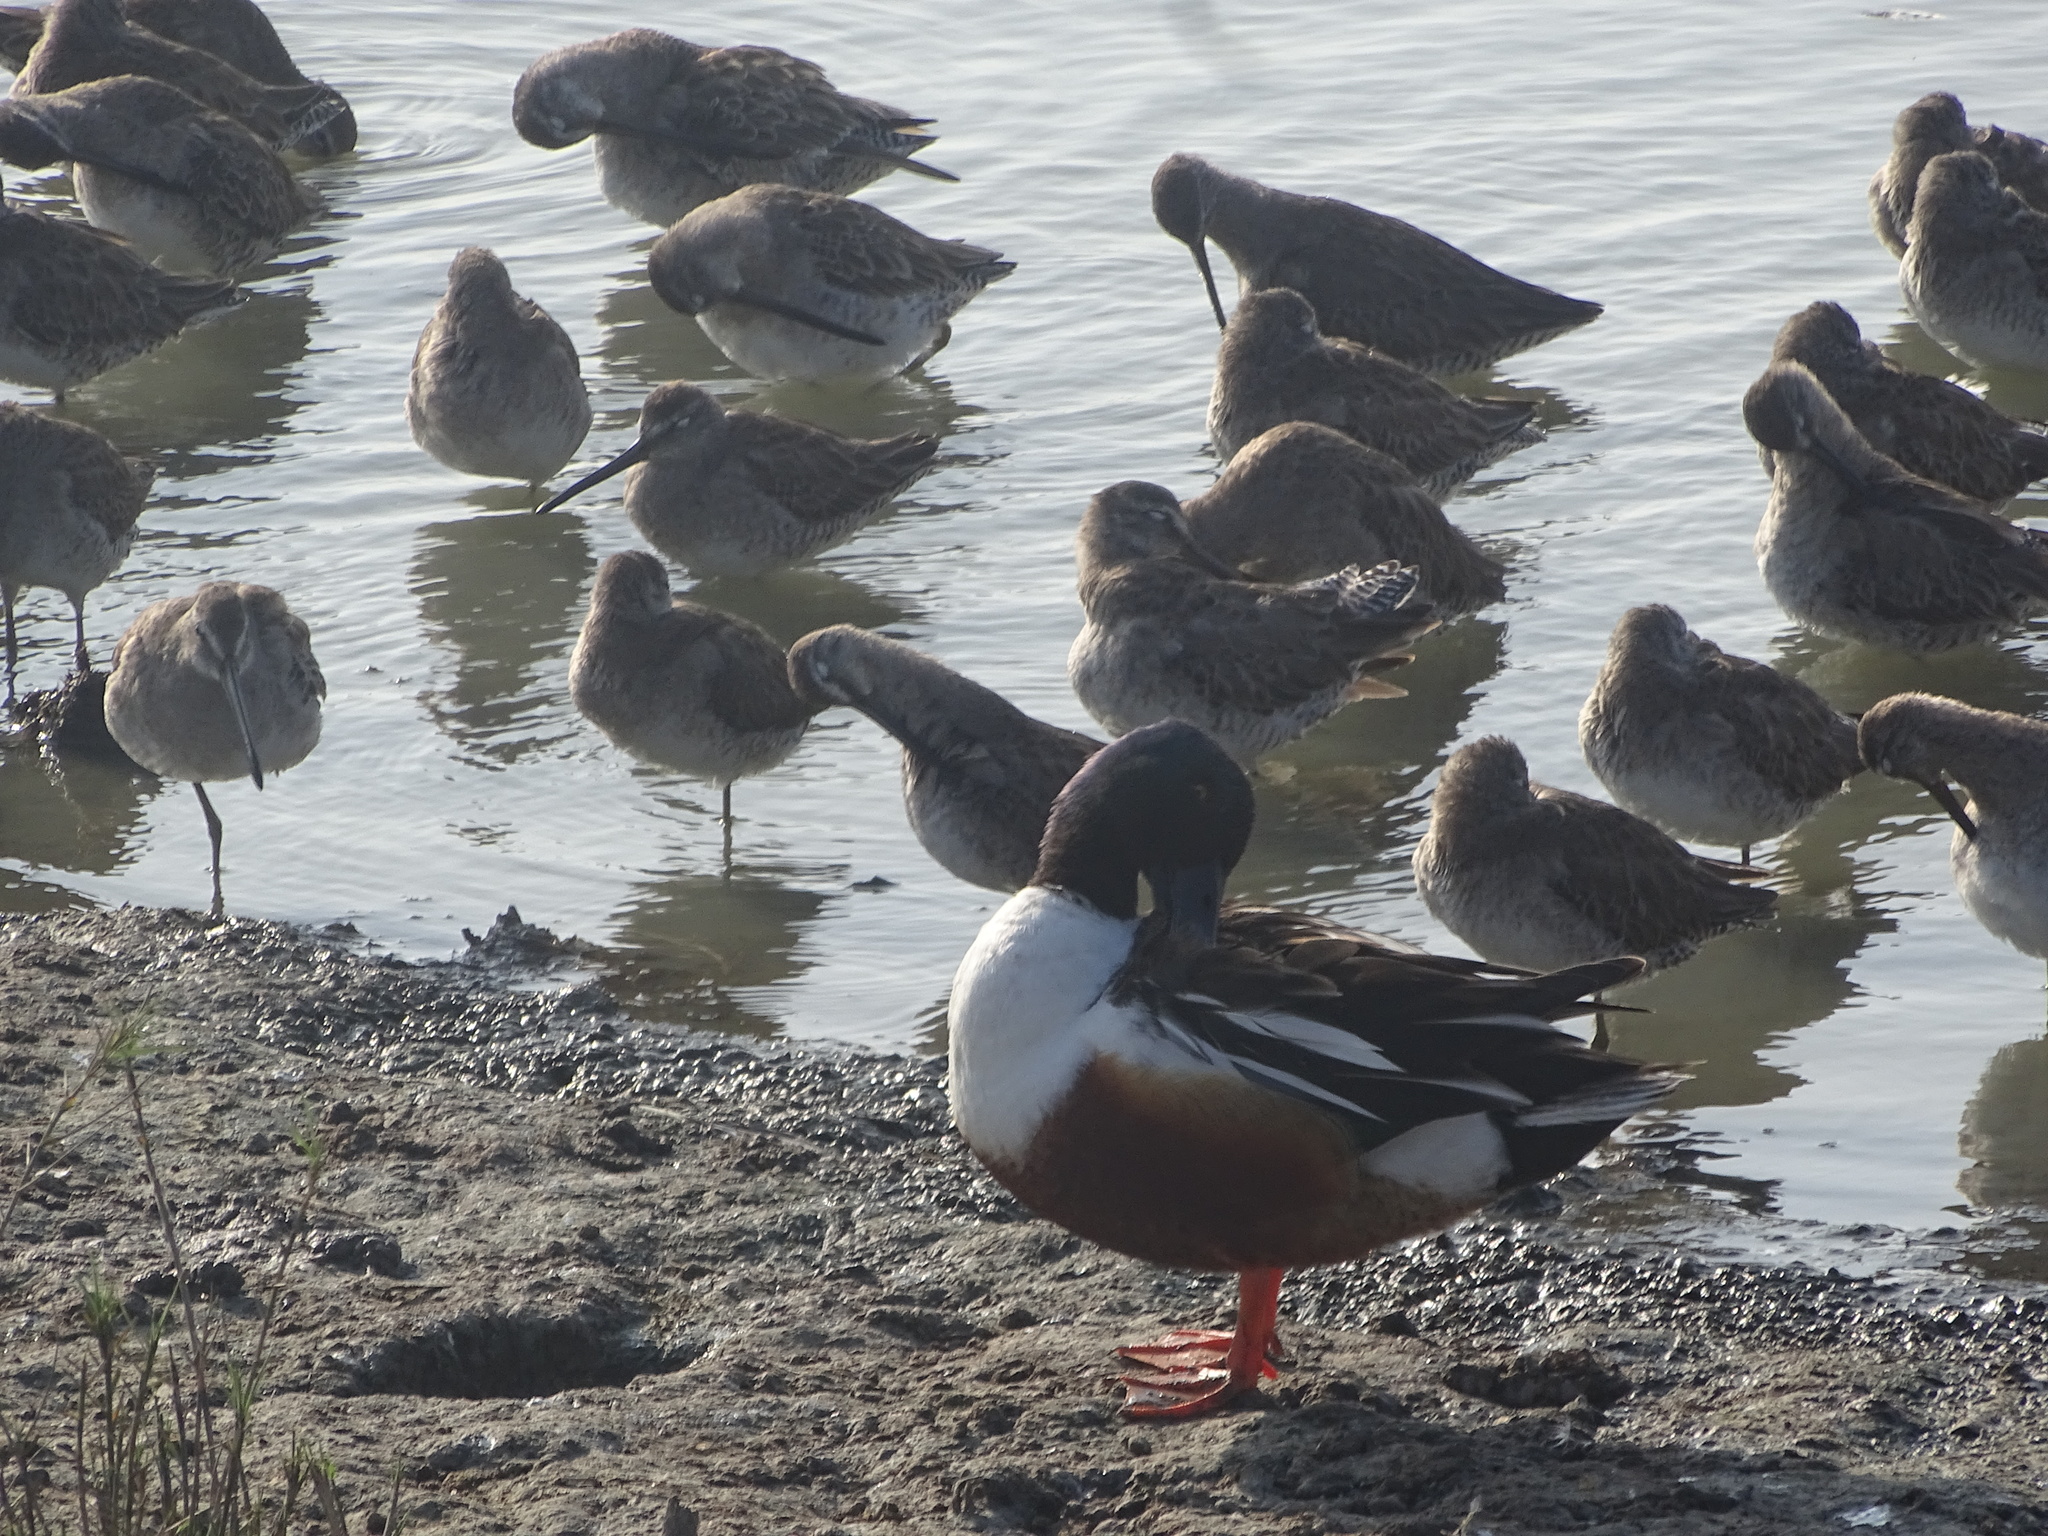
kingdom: Animalia
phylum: Chordata
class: Aves
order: Anseriformes
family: Anatidae
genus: Spatula
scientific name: Spatula clypeata
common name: Northern shoveler
